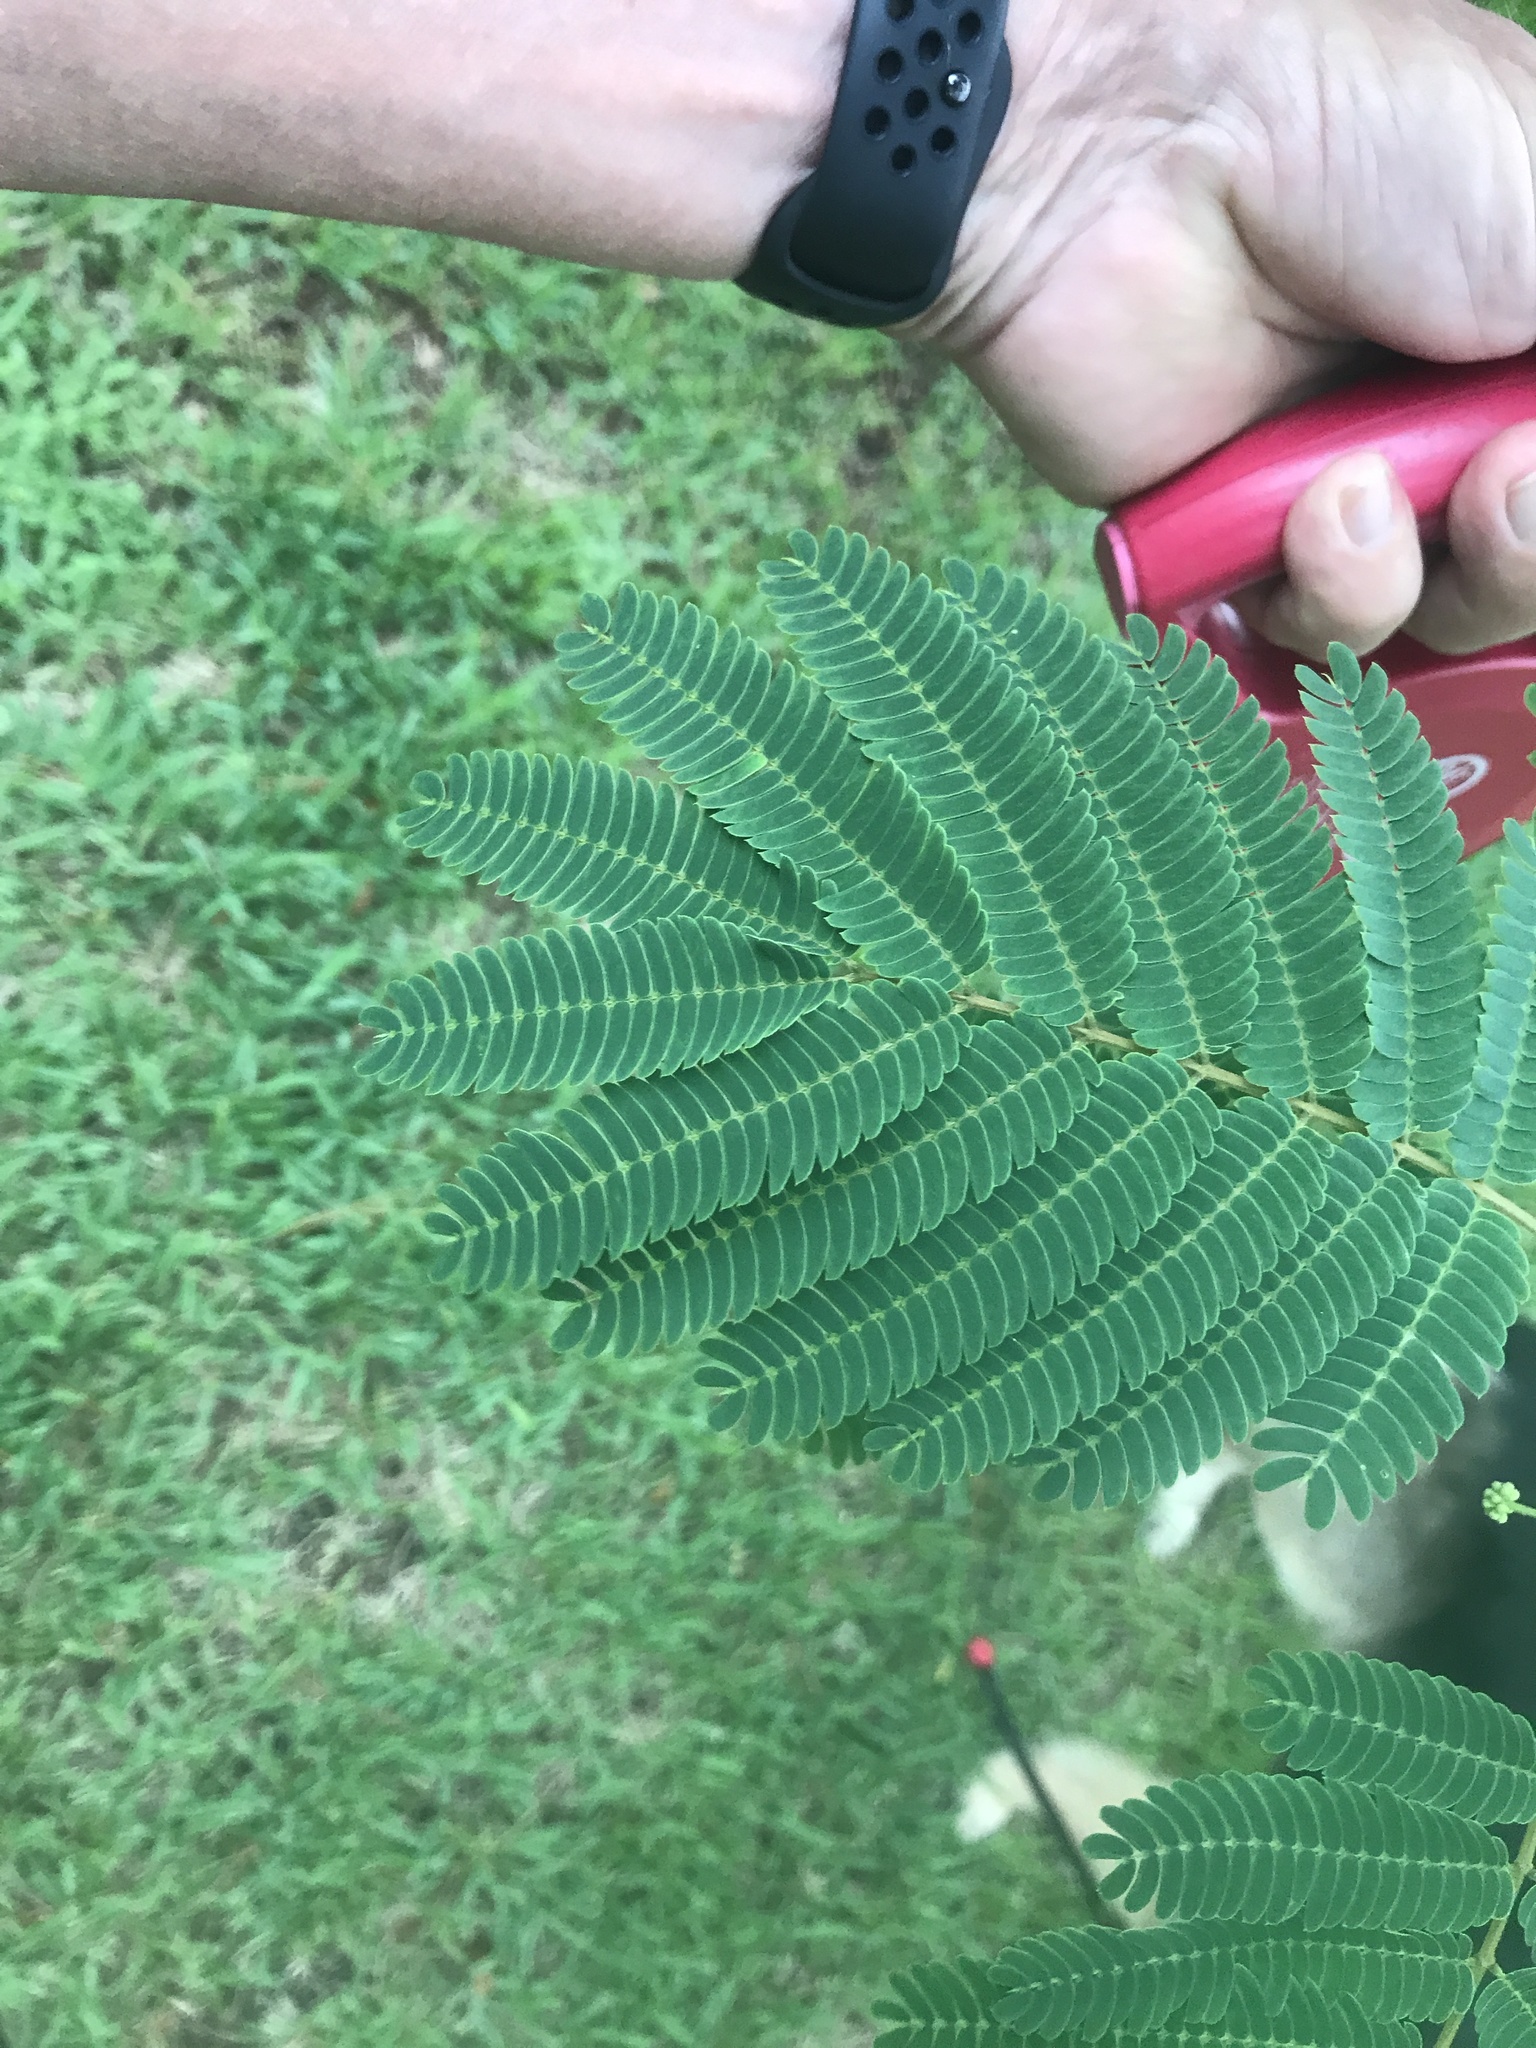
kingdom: Plantae
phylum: Tracheophyta
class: Magnoliopsida
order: Fabales
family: Fabaceae
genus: Albizia
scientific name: Albizia julibrissin
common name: Silktree
